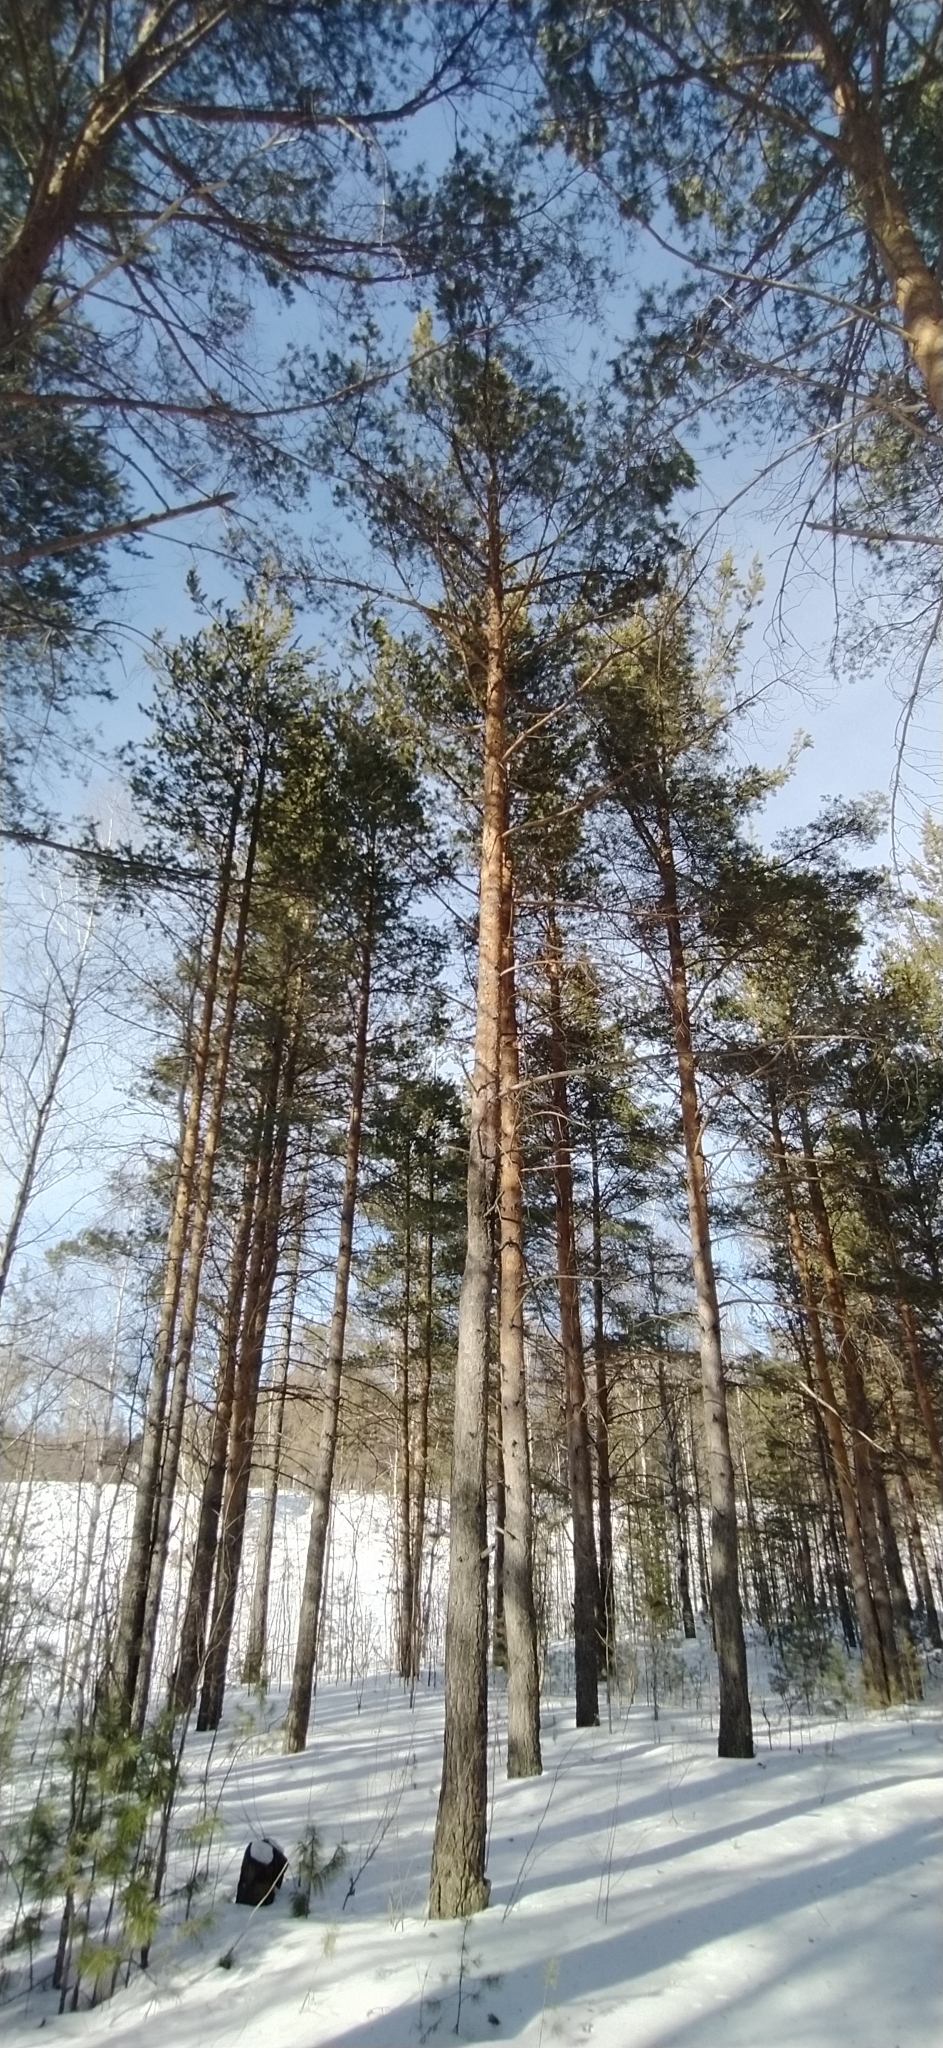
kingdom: Plantae
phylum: Tracheophyta
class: Pinopsida
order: Pinales
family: Pinaceae
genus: Pinus
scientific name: Pinus sylvestris
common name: Scots pine
